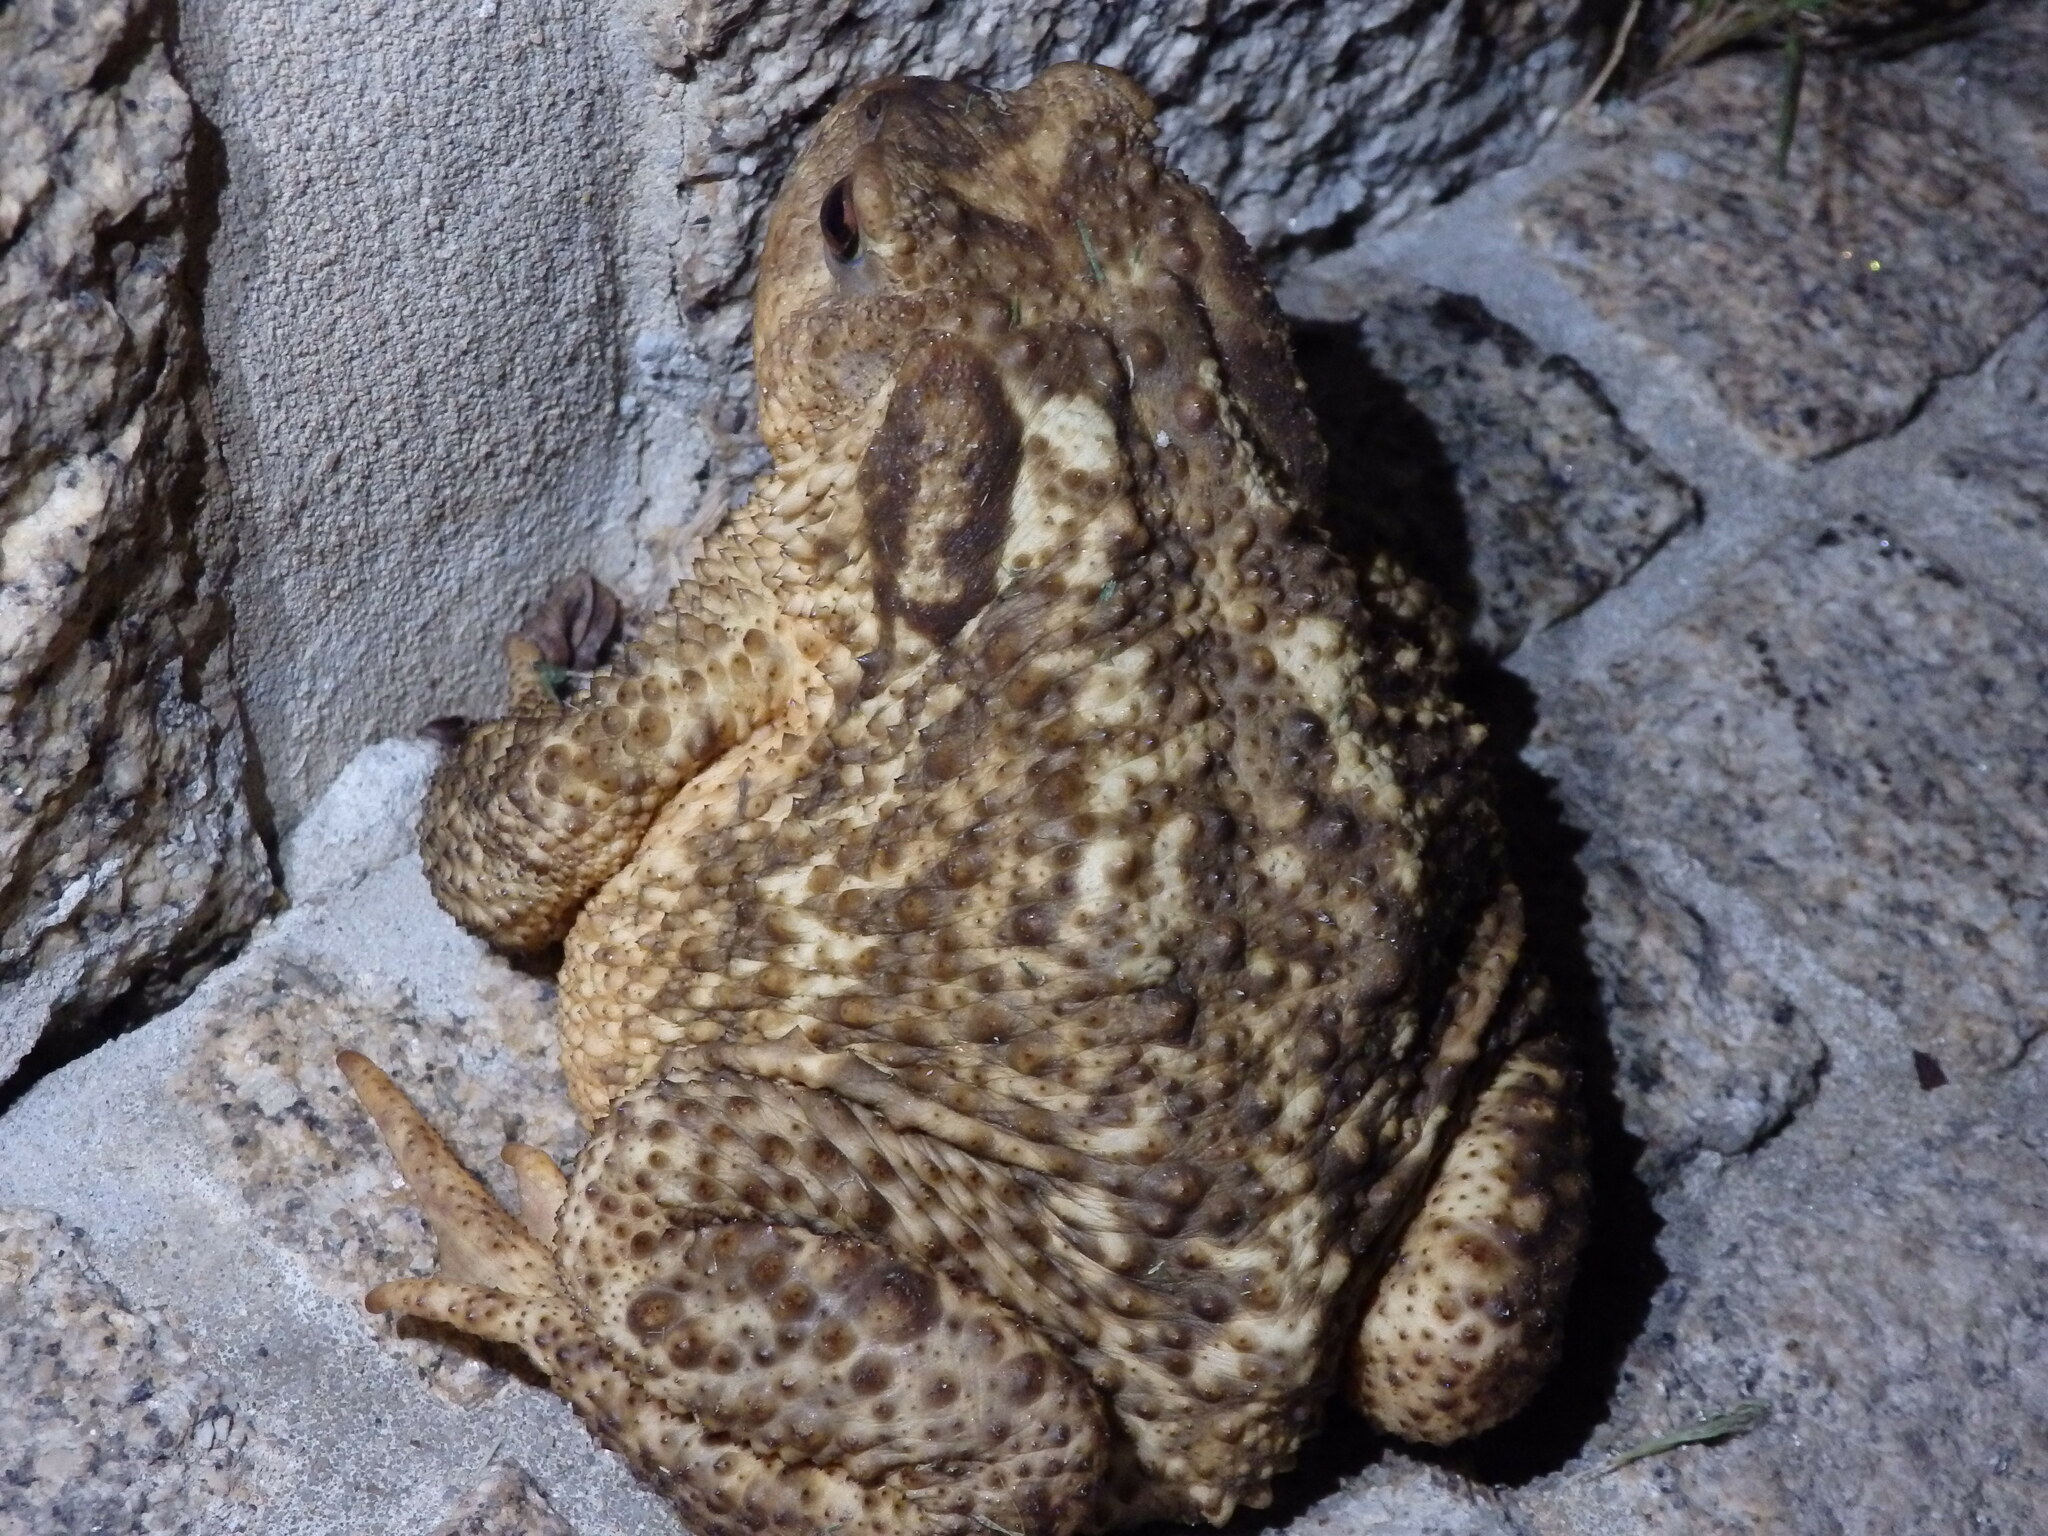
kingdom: Animalia
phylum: Chordata
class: Amphibia
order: Anura
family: Bufonidae
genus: Bufo
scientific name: Bufo spinosus
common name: Western common toad
